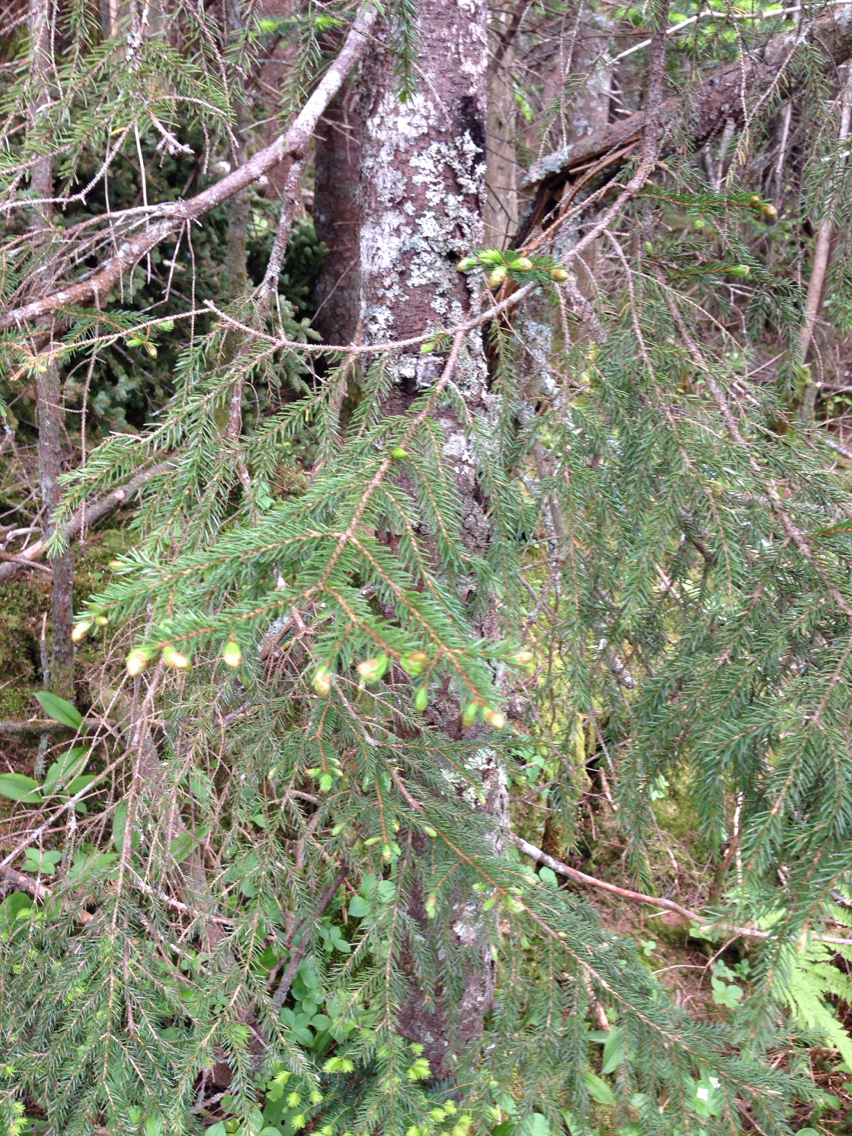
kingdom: Plantae
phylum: Tracheophyta
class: Pinopsida
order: Pinales
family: Pinaceae
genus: Picea
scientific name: Picea rubens
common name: Red spruce
